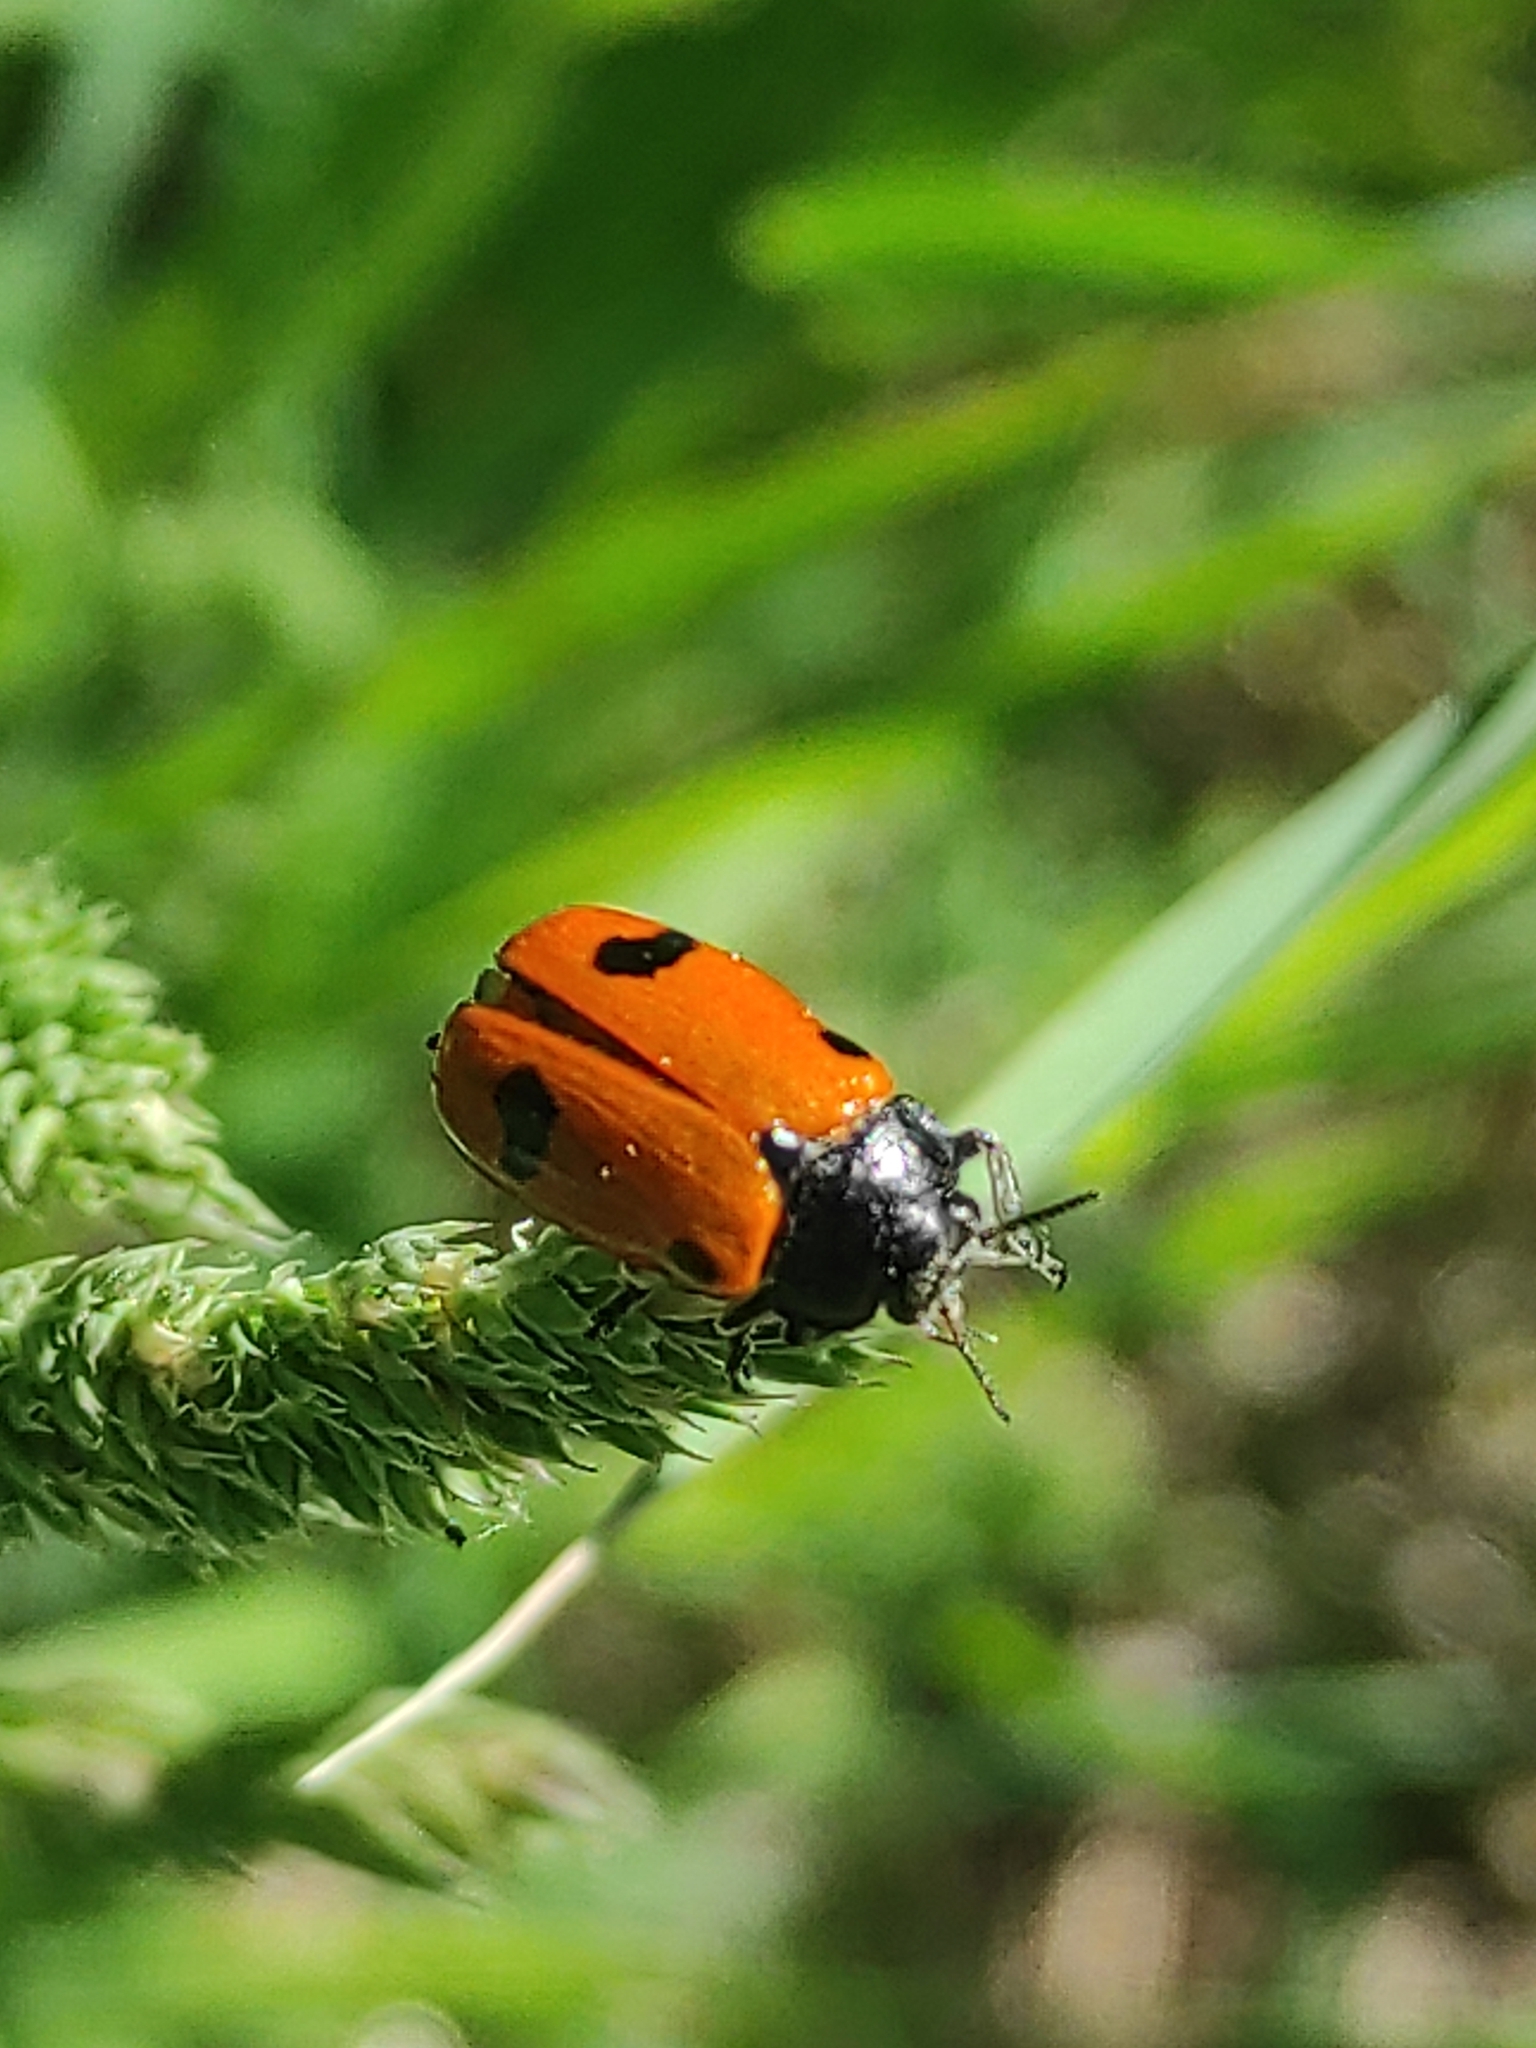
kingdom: Animalia
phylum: Arthropoda
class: Insecta
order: Coleoptera
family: Chrysomelidae
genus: Clytra
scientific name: Clytra quadripunctata
